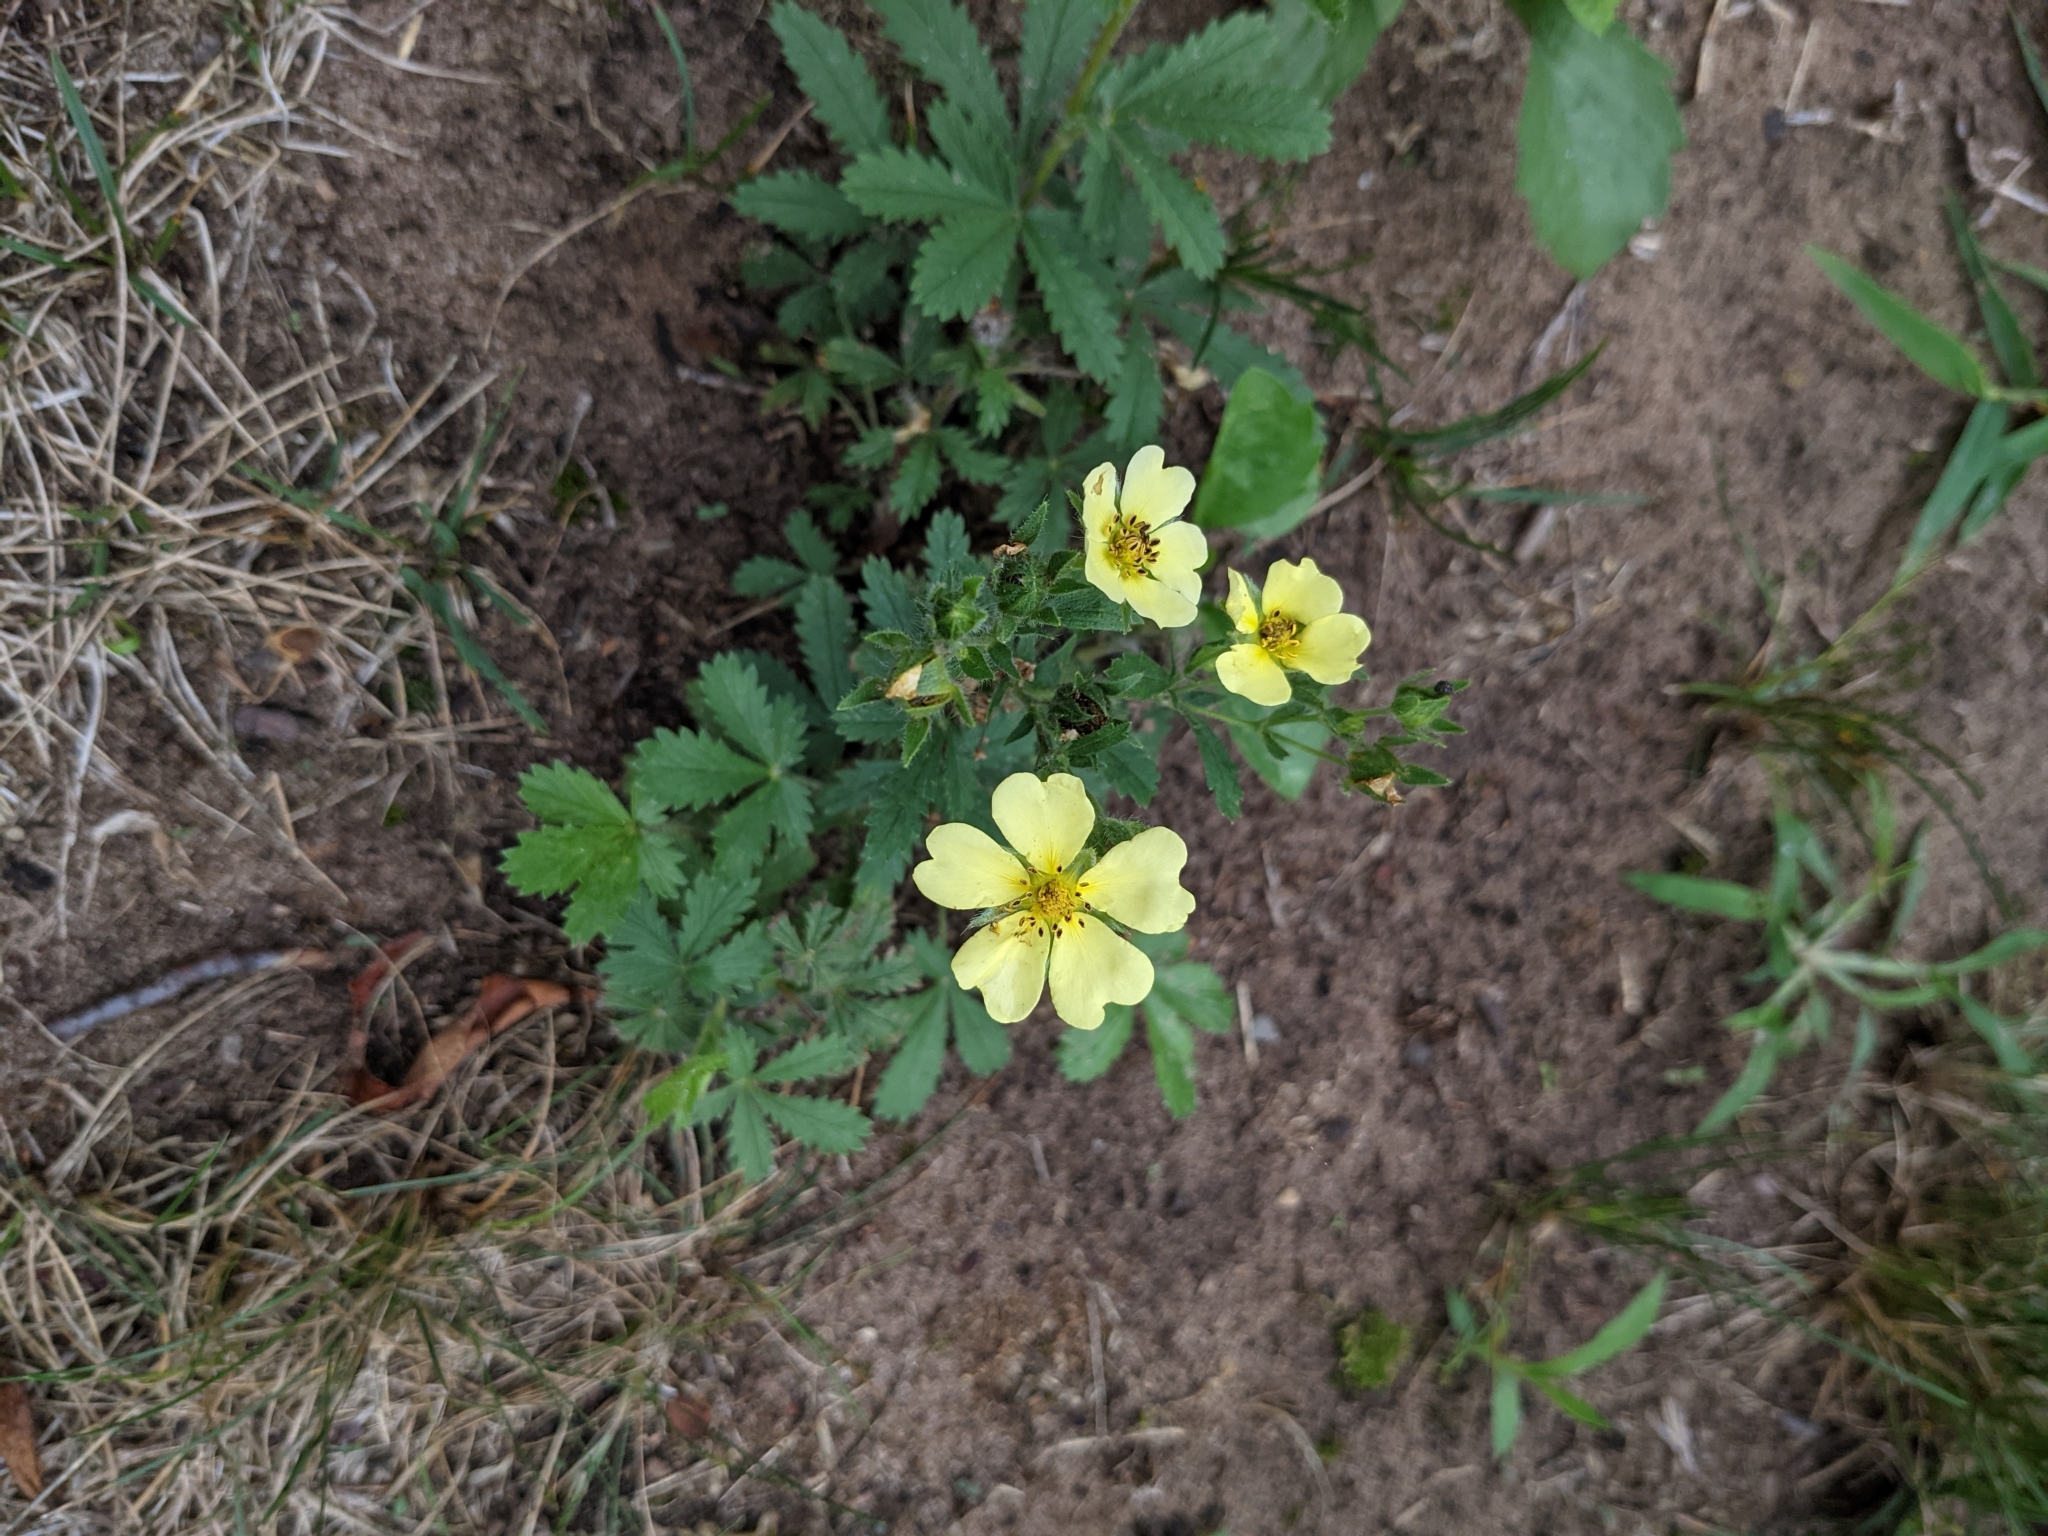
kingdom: Plantae
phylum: Tracheophyta
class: Magnoliopsida
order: Rosales
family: Rosaceae
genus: Potentilla
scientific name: Potentilla recta
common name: Sulphur cinquefoil
